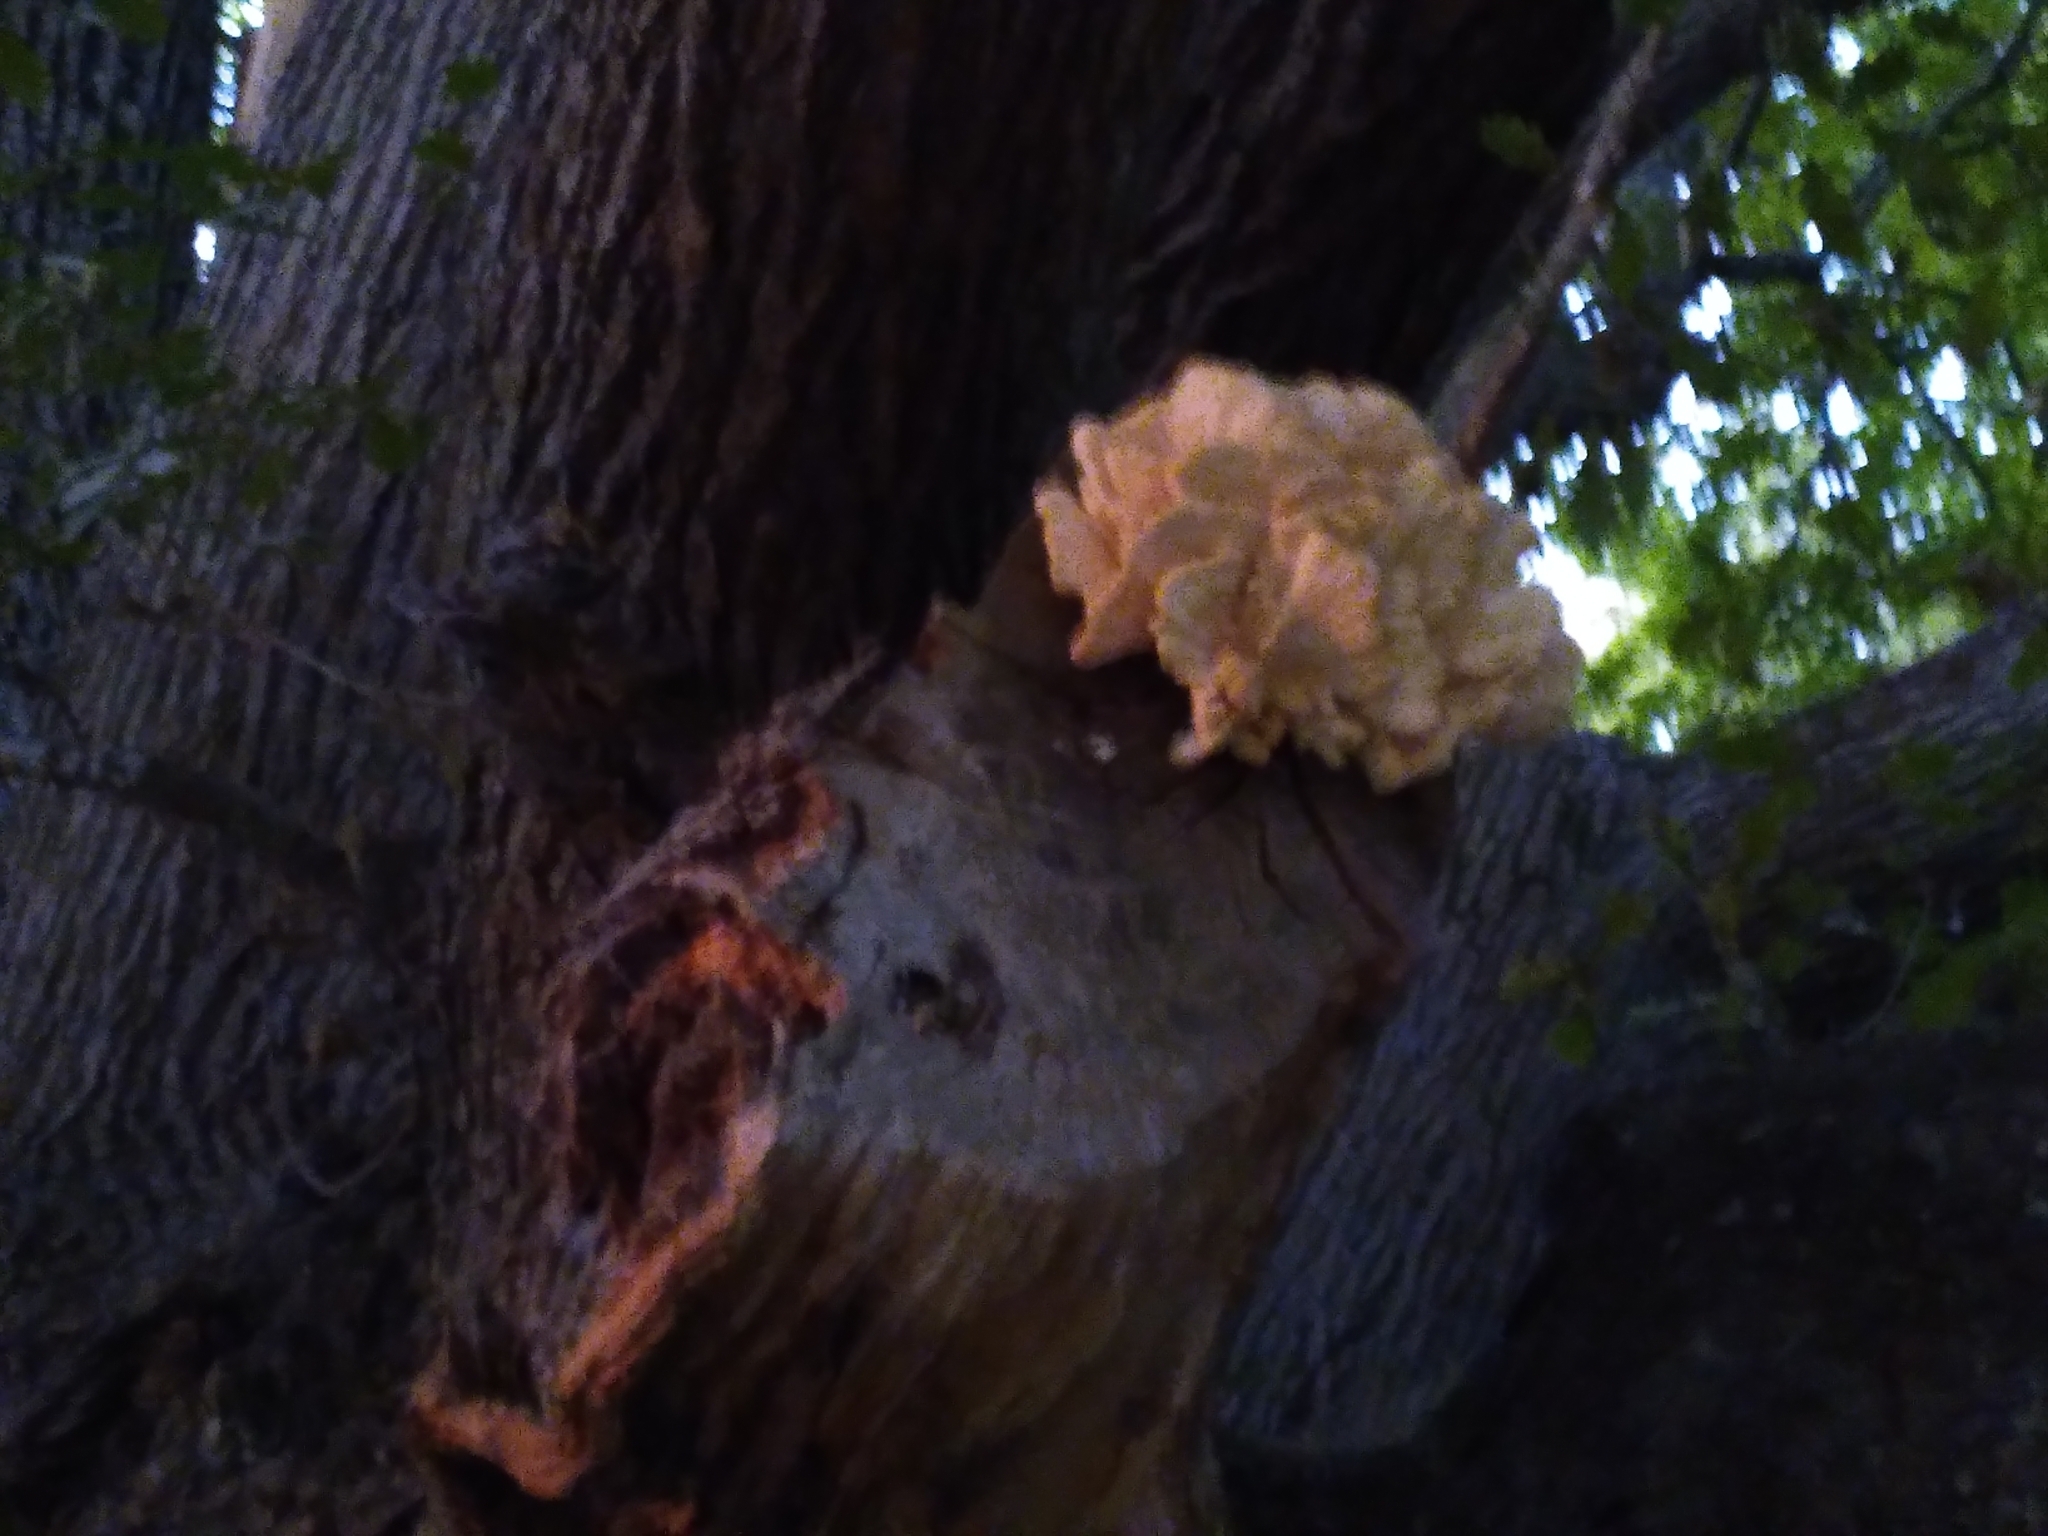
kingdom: Fungi
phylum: Basidiomycota
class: Agaricomycetes
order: Polyporales
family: Laetiporaceae
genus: Laetiporus
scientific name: Laetiporus sulphureus
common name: Chicken of the woods
